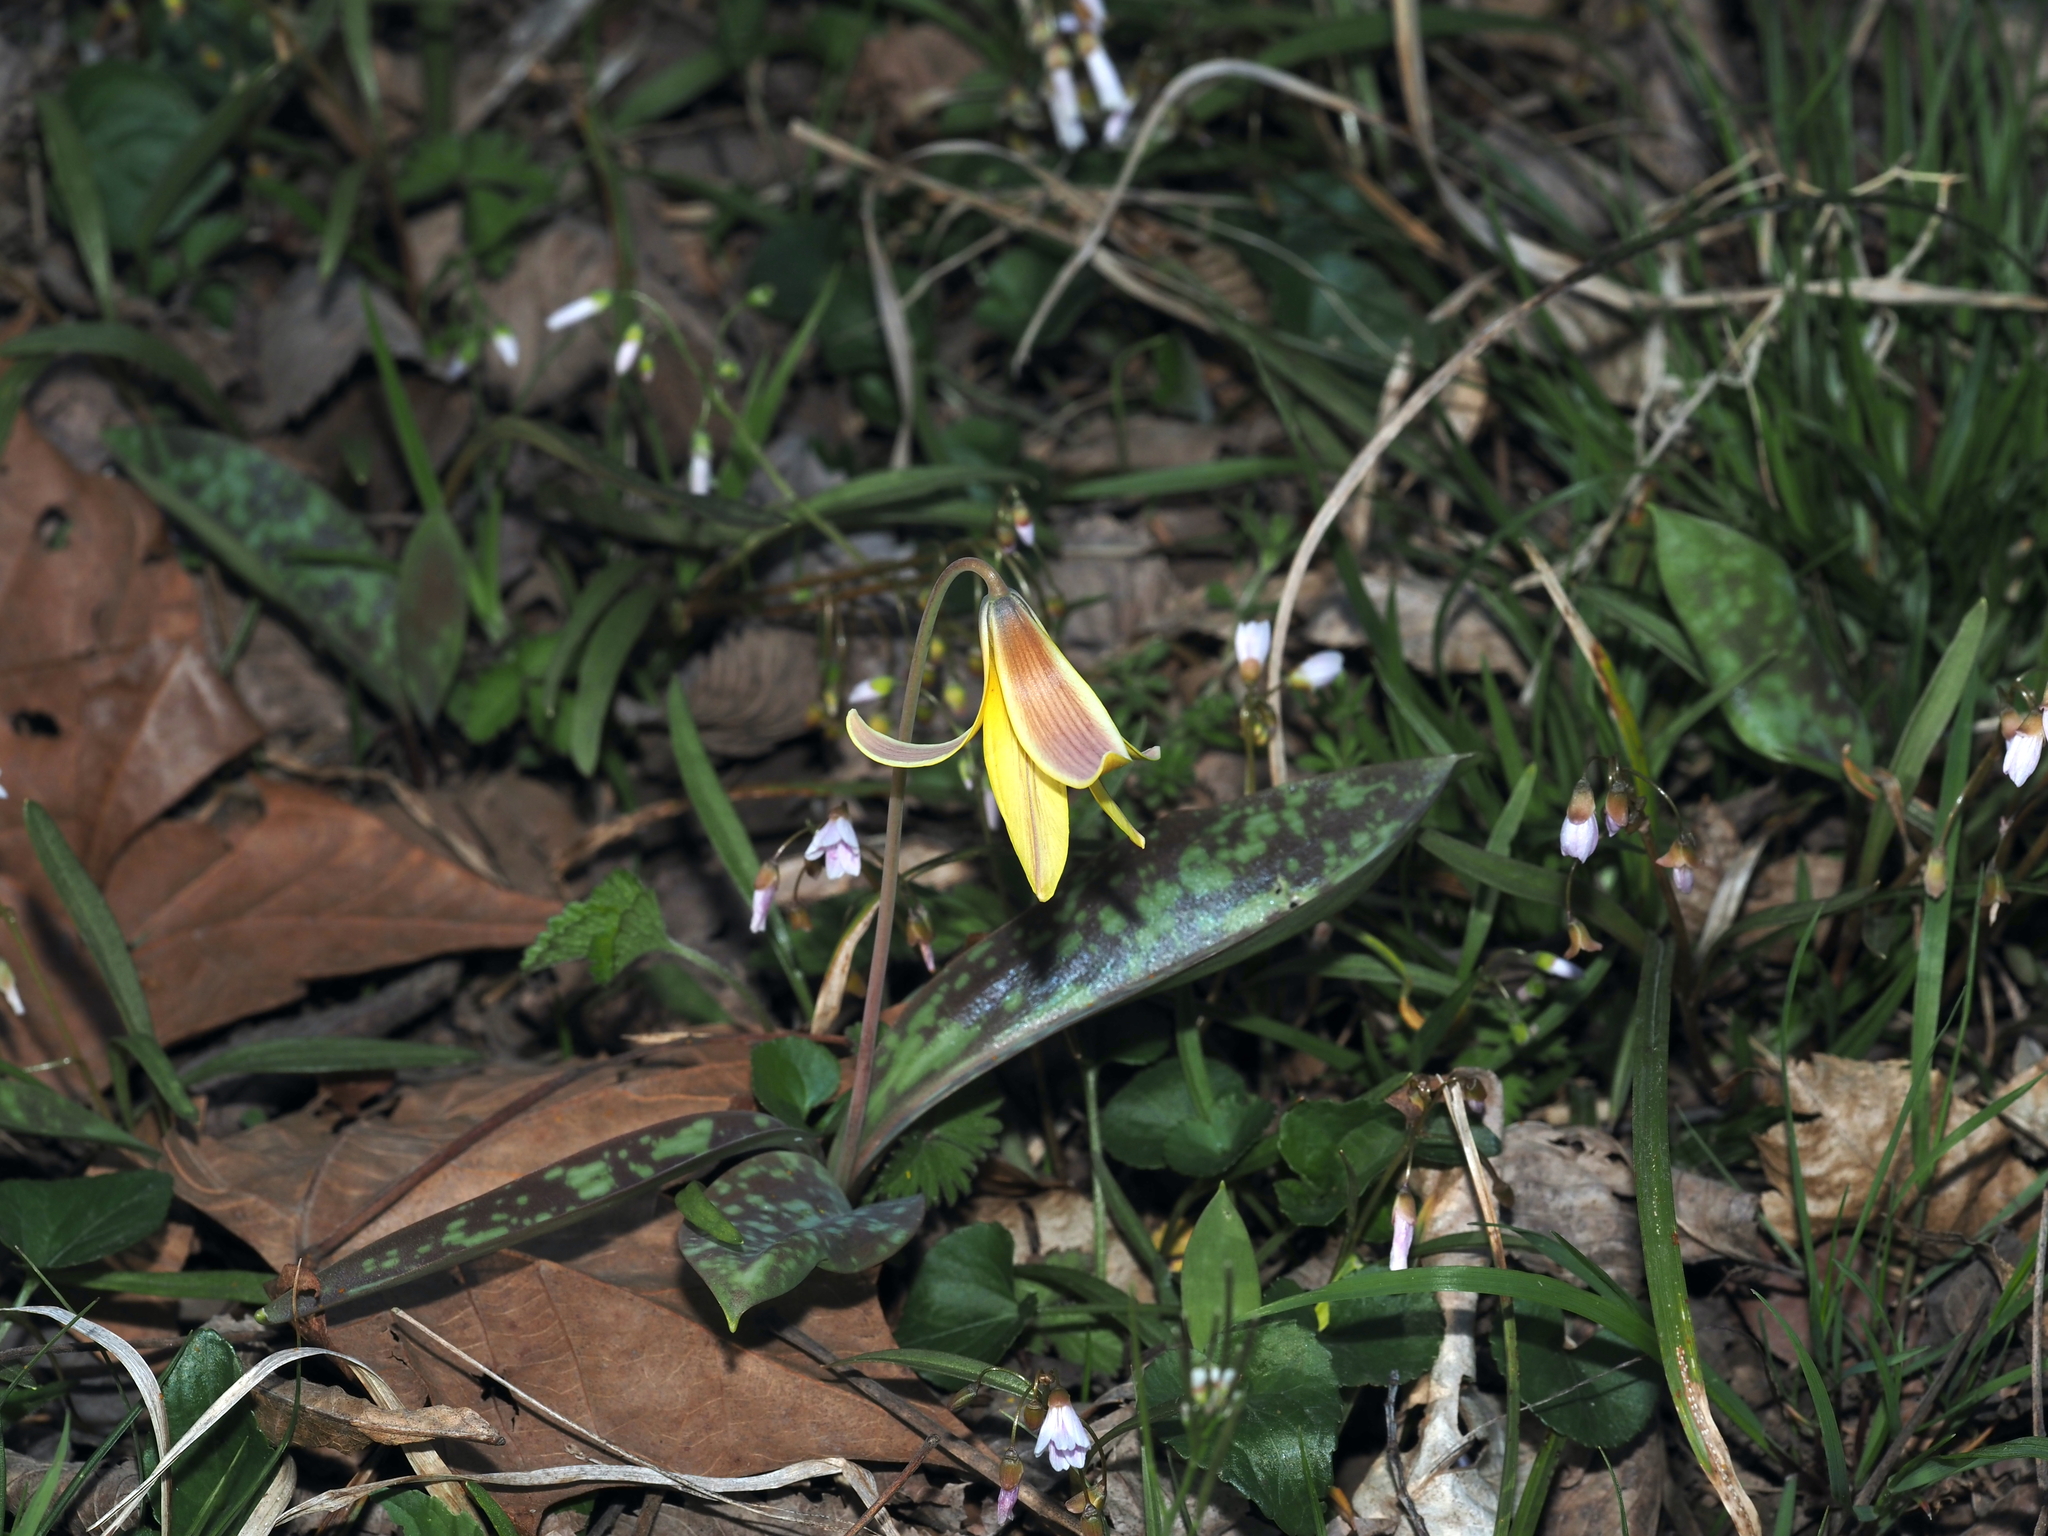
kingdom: Plantae
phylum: Tracheophyta
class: Liliopsida
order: Liliales
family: Liliaceae
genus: Erythronium
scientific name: Erythronium americanum
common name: Yellow adder's-tongue
